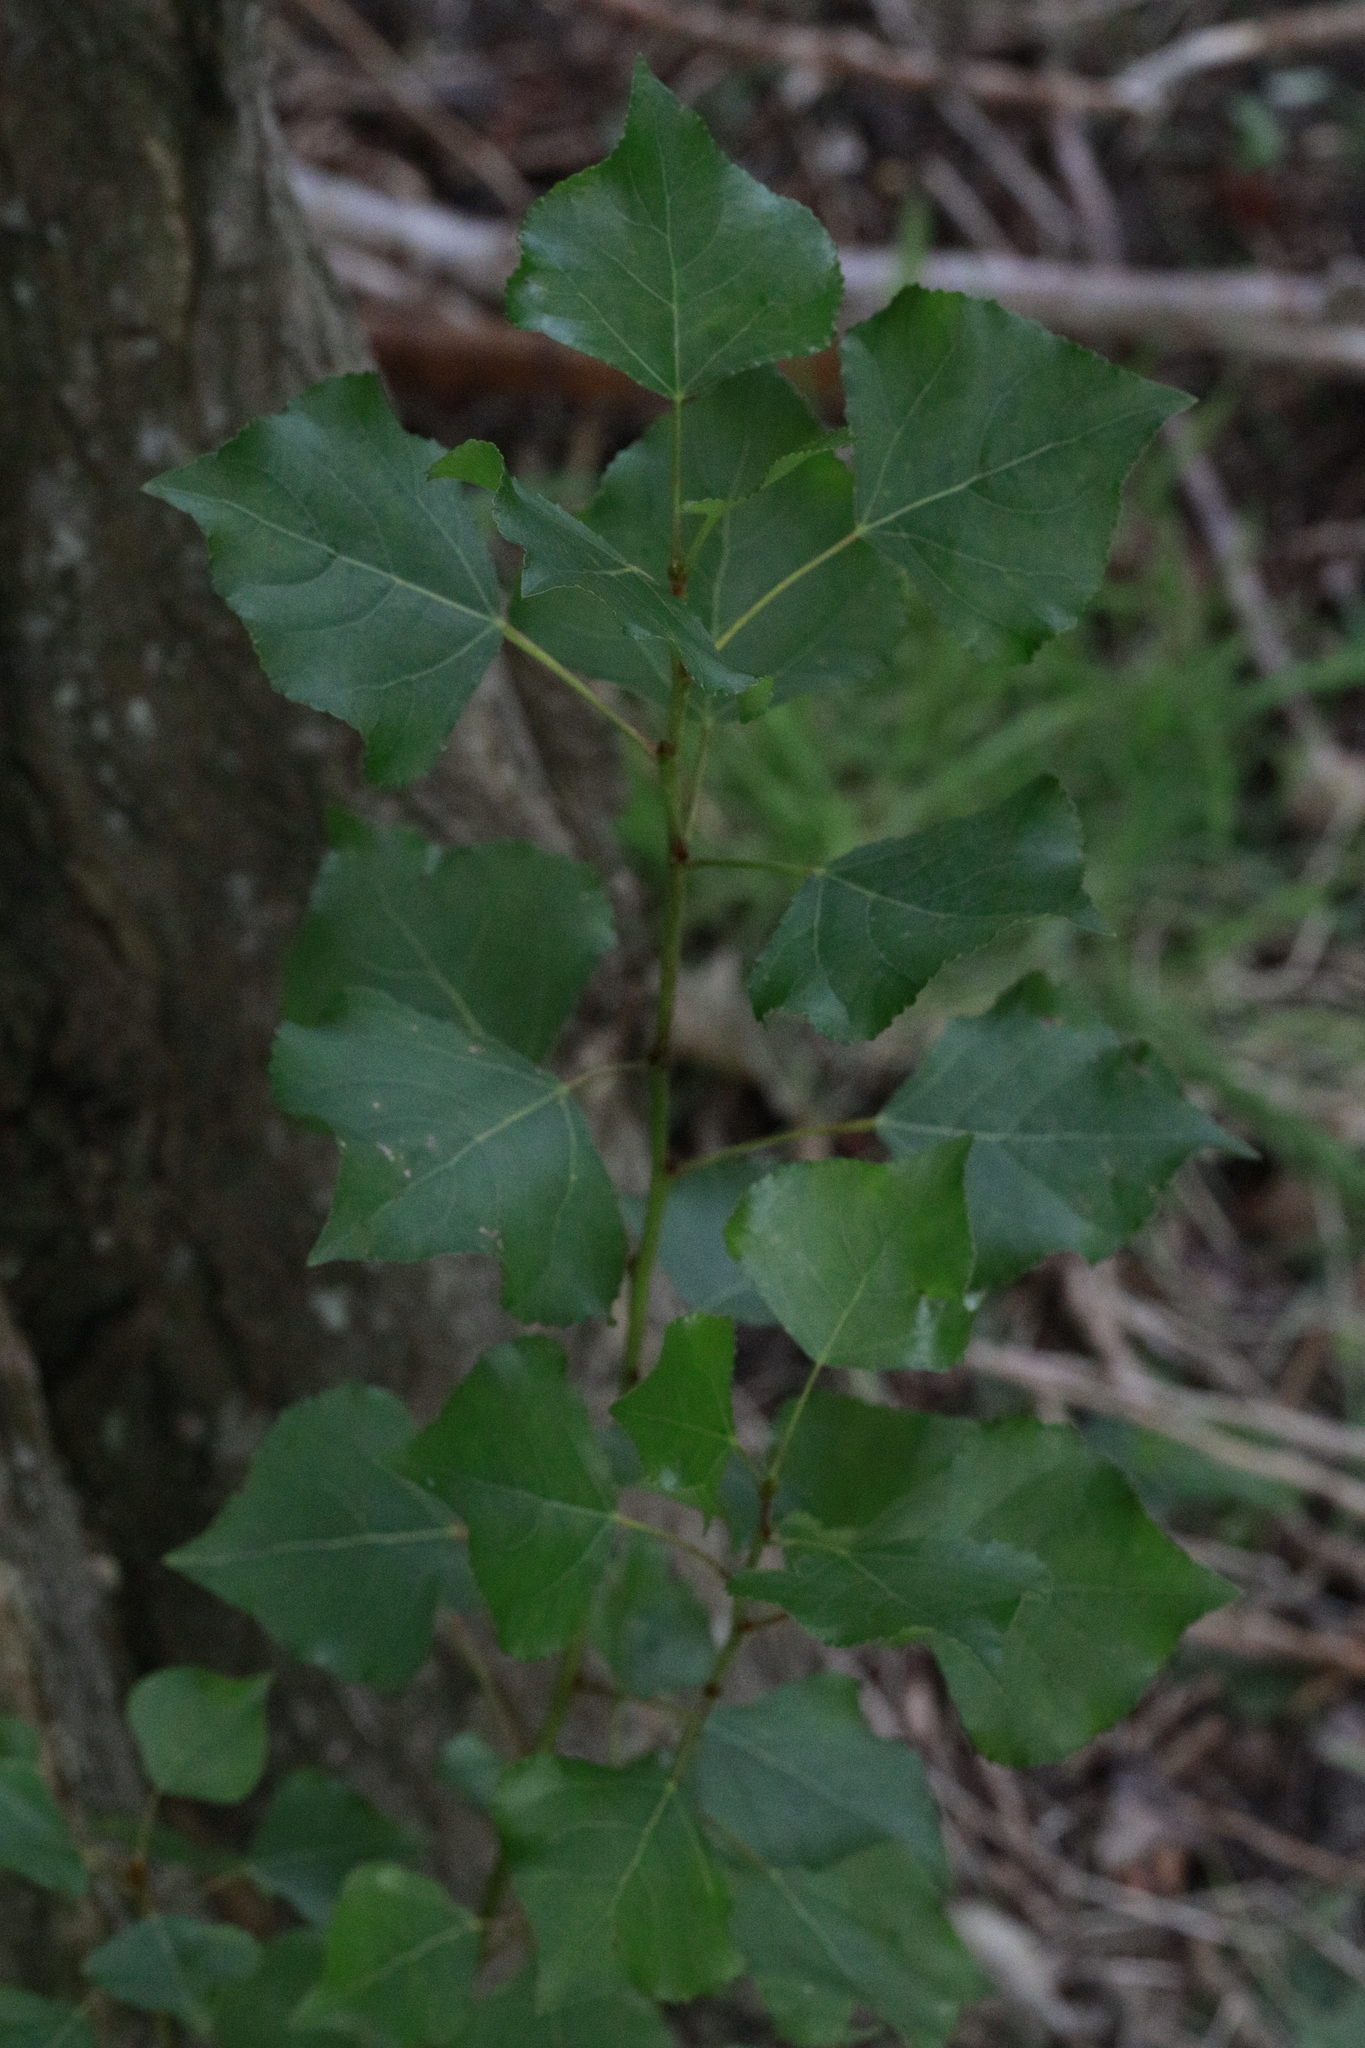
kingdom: Plantae
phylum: Tracheophyta
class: Magnoliopsida
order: Malpighiales
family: Salicaceae
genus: Populus
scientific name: Populus nigra
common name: Black poplar
